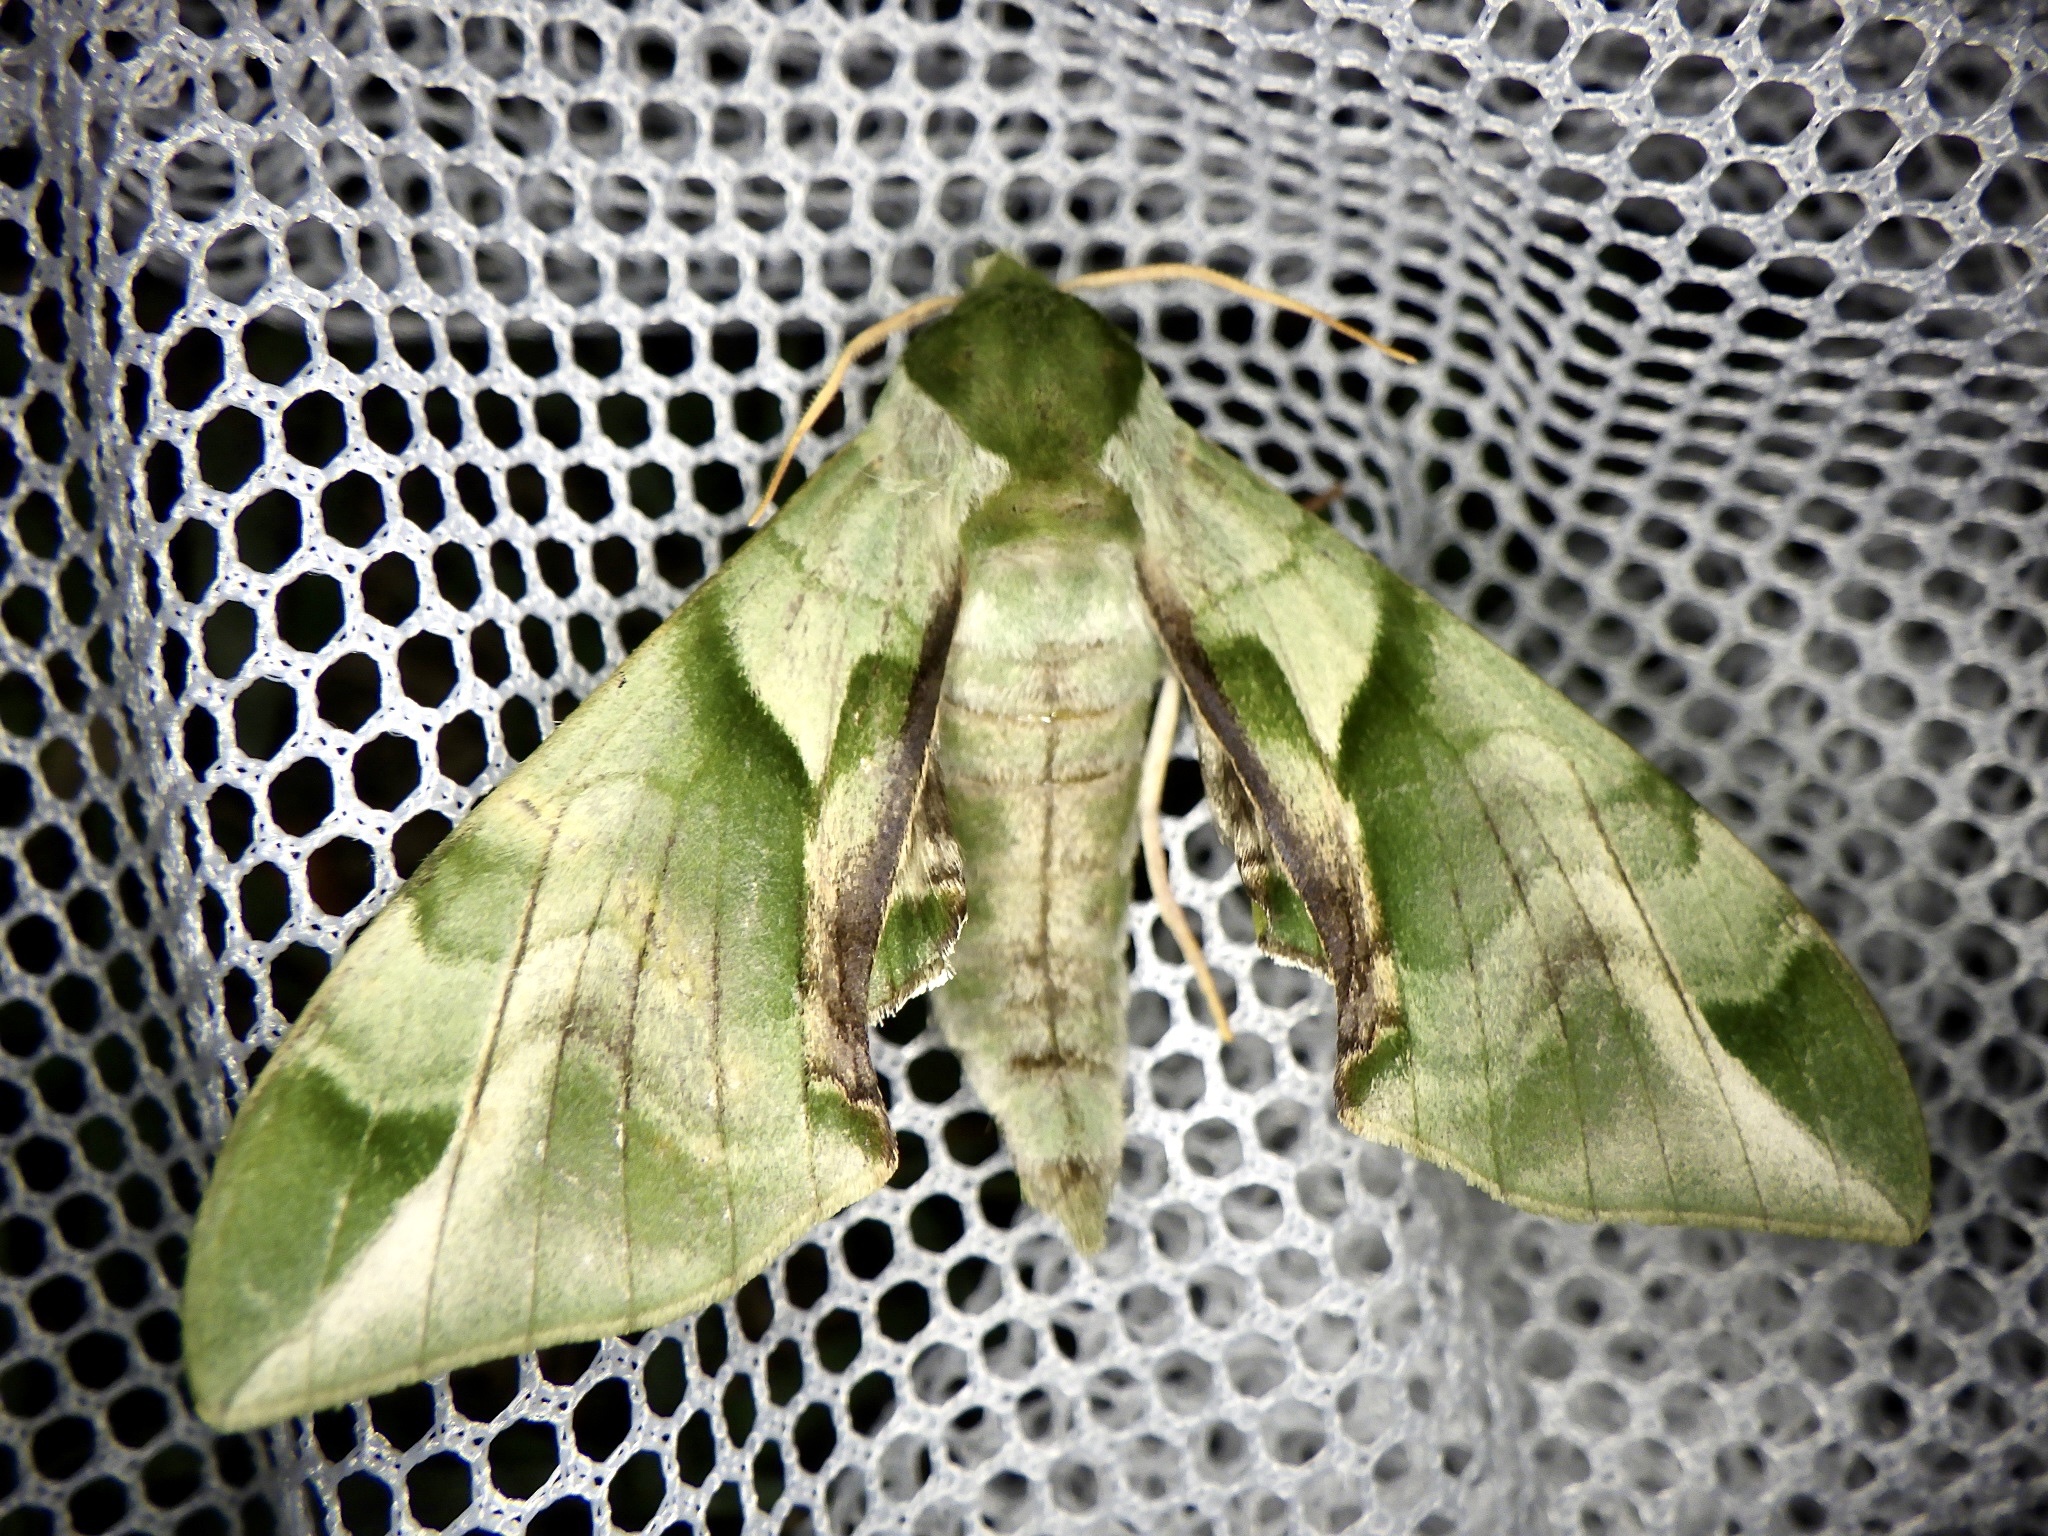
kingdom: Animalia
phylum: Arthropoda
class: Insecta
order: Lepidoptera
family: Sphingidae
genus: Callambulyx
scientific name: Callambulyx tatarinovii
